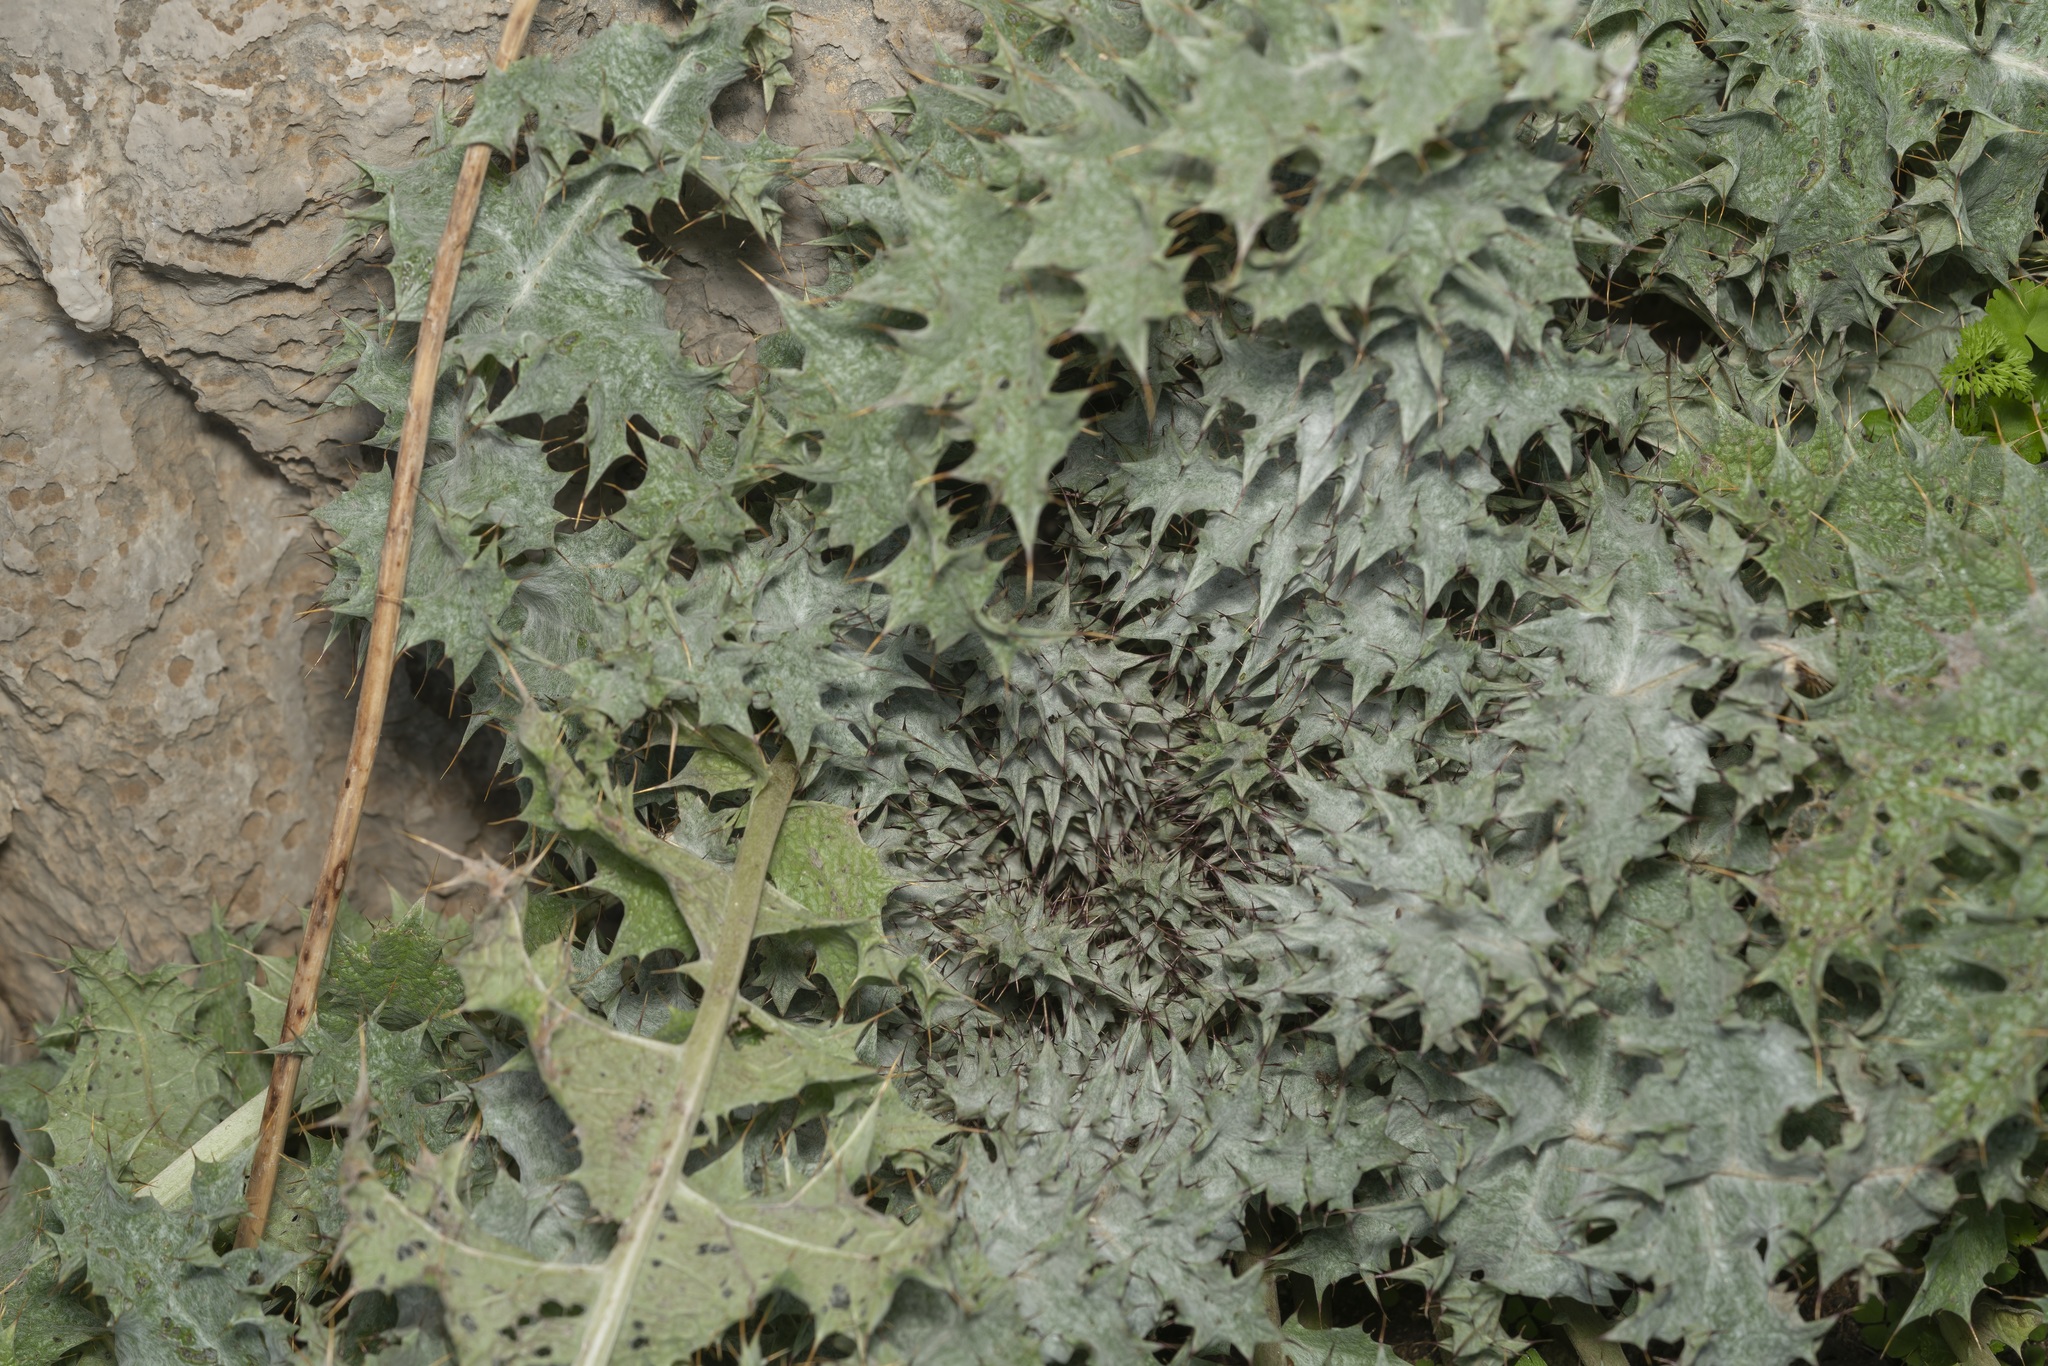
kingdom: Plantae
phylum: Tracheophyta
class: Magnoliopsida
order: Asterales
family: Asteraceae
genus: Onopordum
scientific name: Onopordum bracteatum
